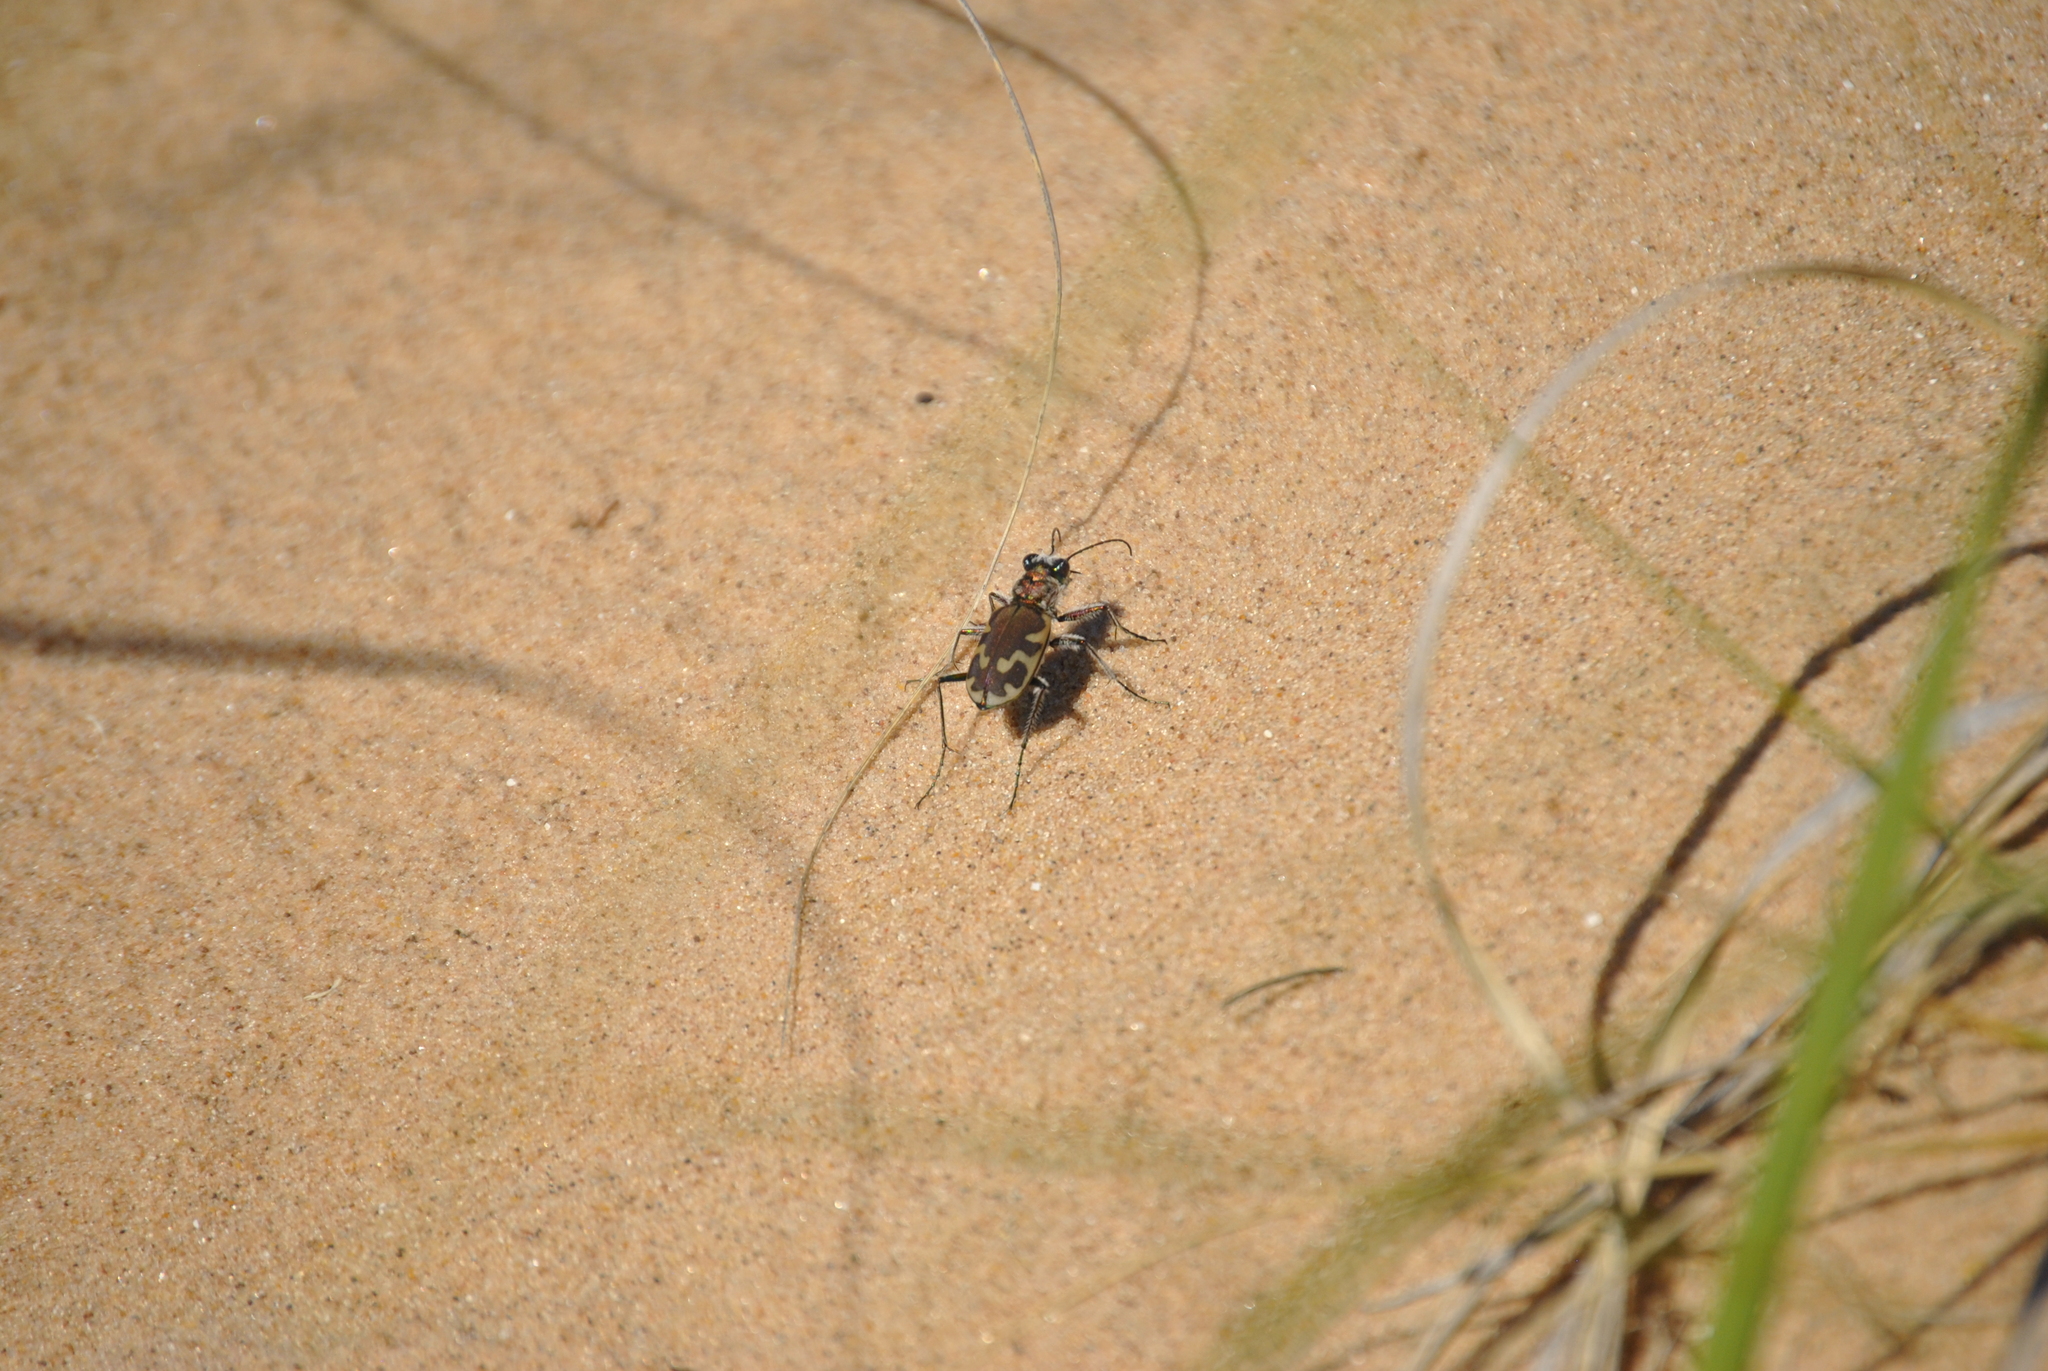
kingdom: Animalia
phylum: Arthropoda
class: Insecta
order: Coleoptera
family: Carabidae
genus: Cicindela
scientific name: Cicindela formosa
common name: Big sand tiger beetle
